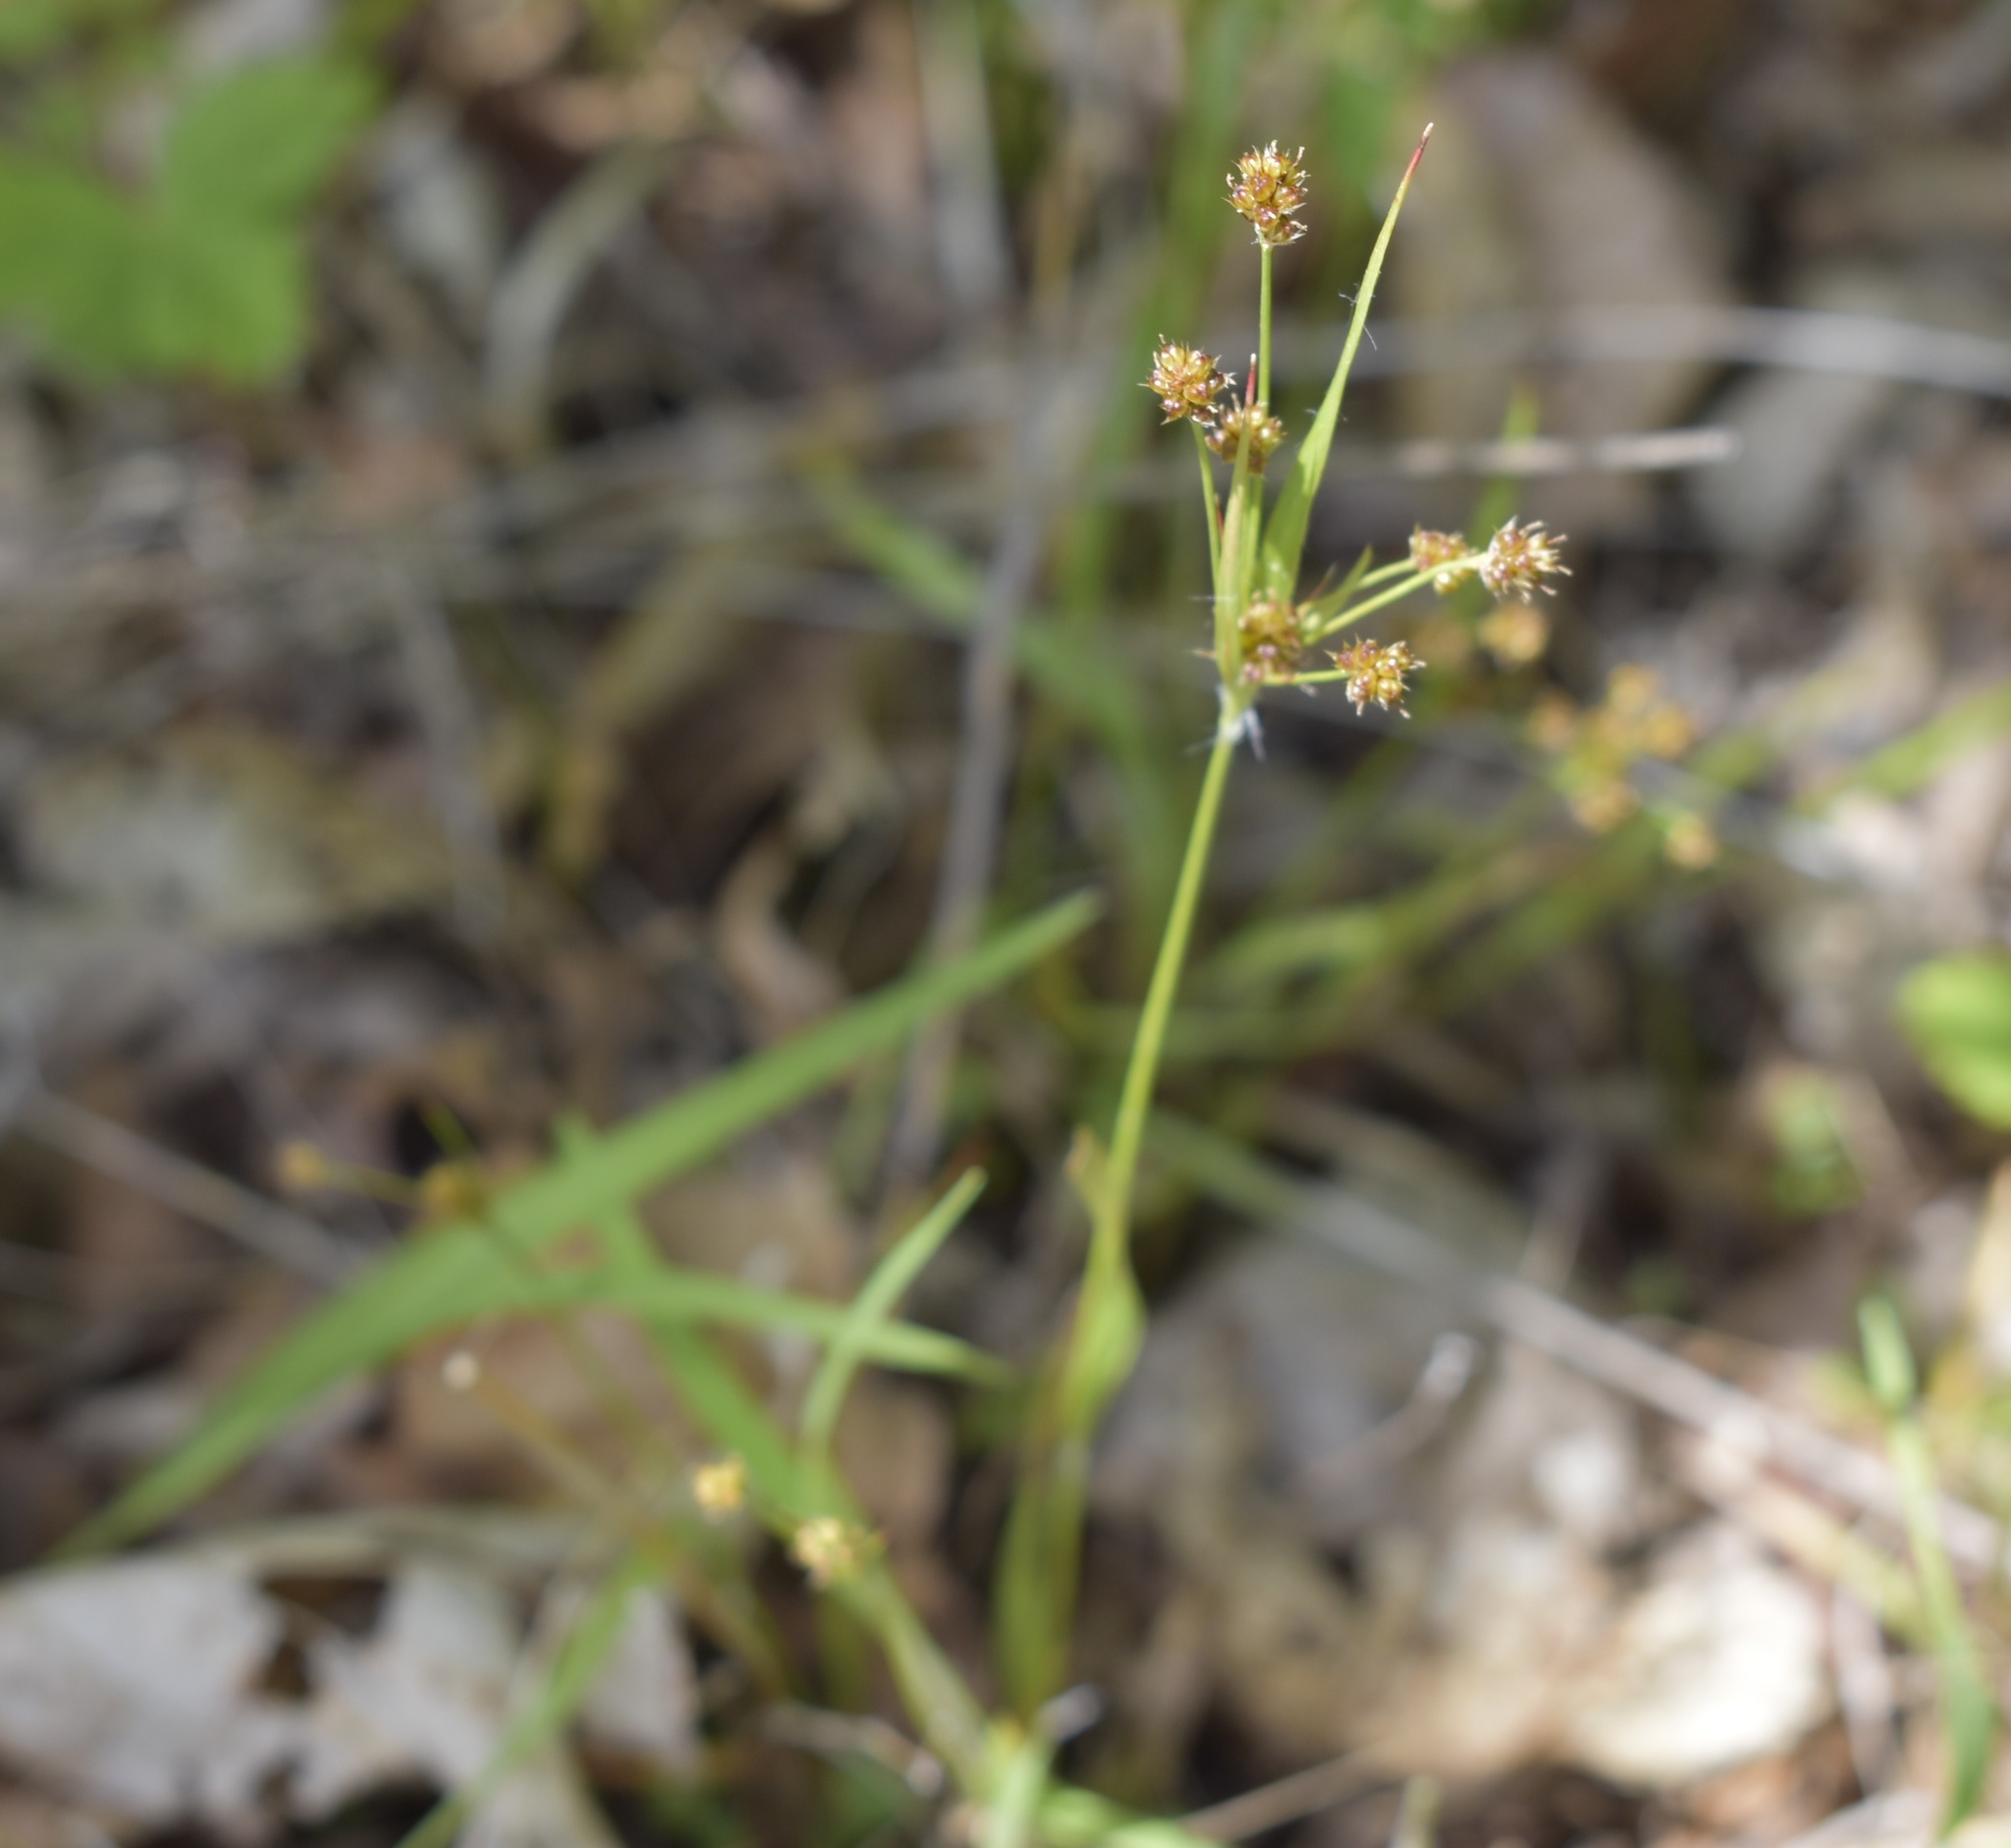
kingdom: Plantae
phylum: Tracheophyta
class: Liliopsida
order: Poales
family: Juncaceae
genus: Luzula
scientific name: Luzula pallescens
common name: Fen wood-rush
